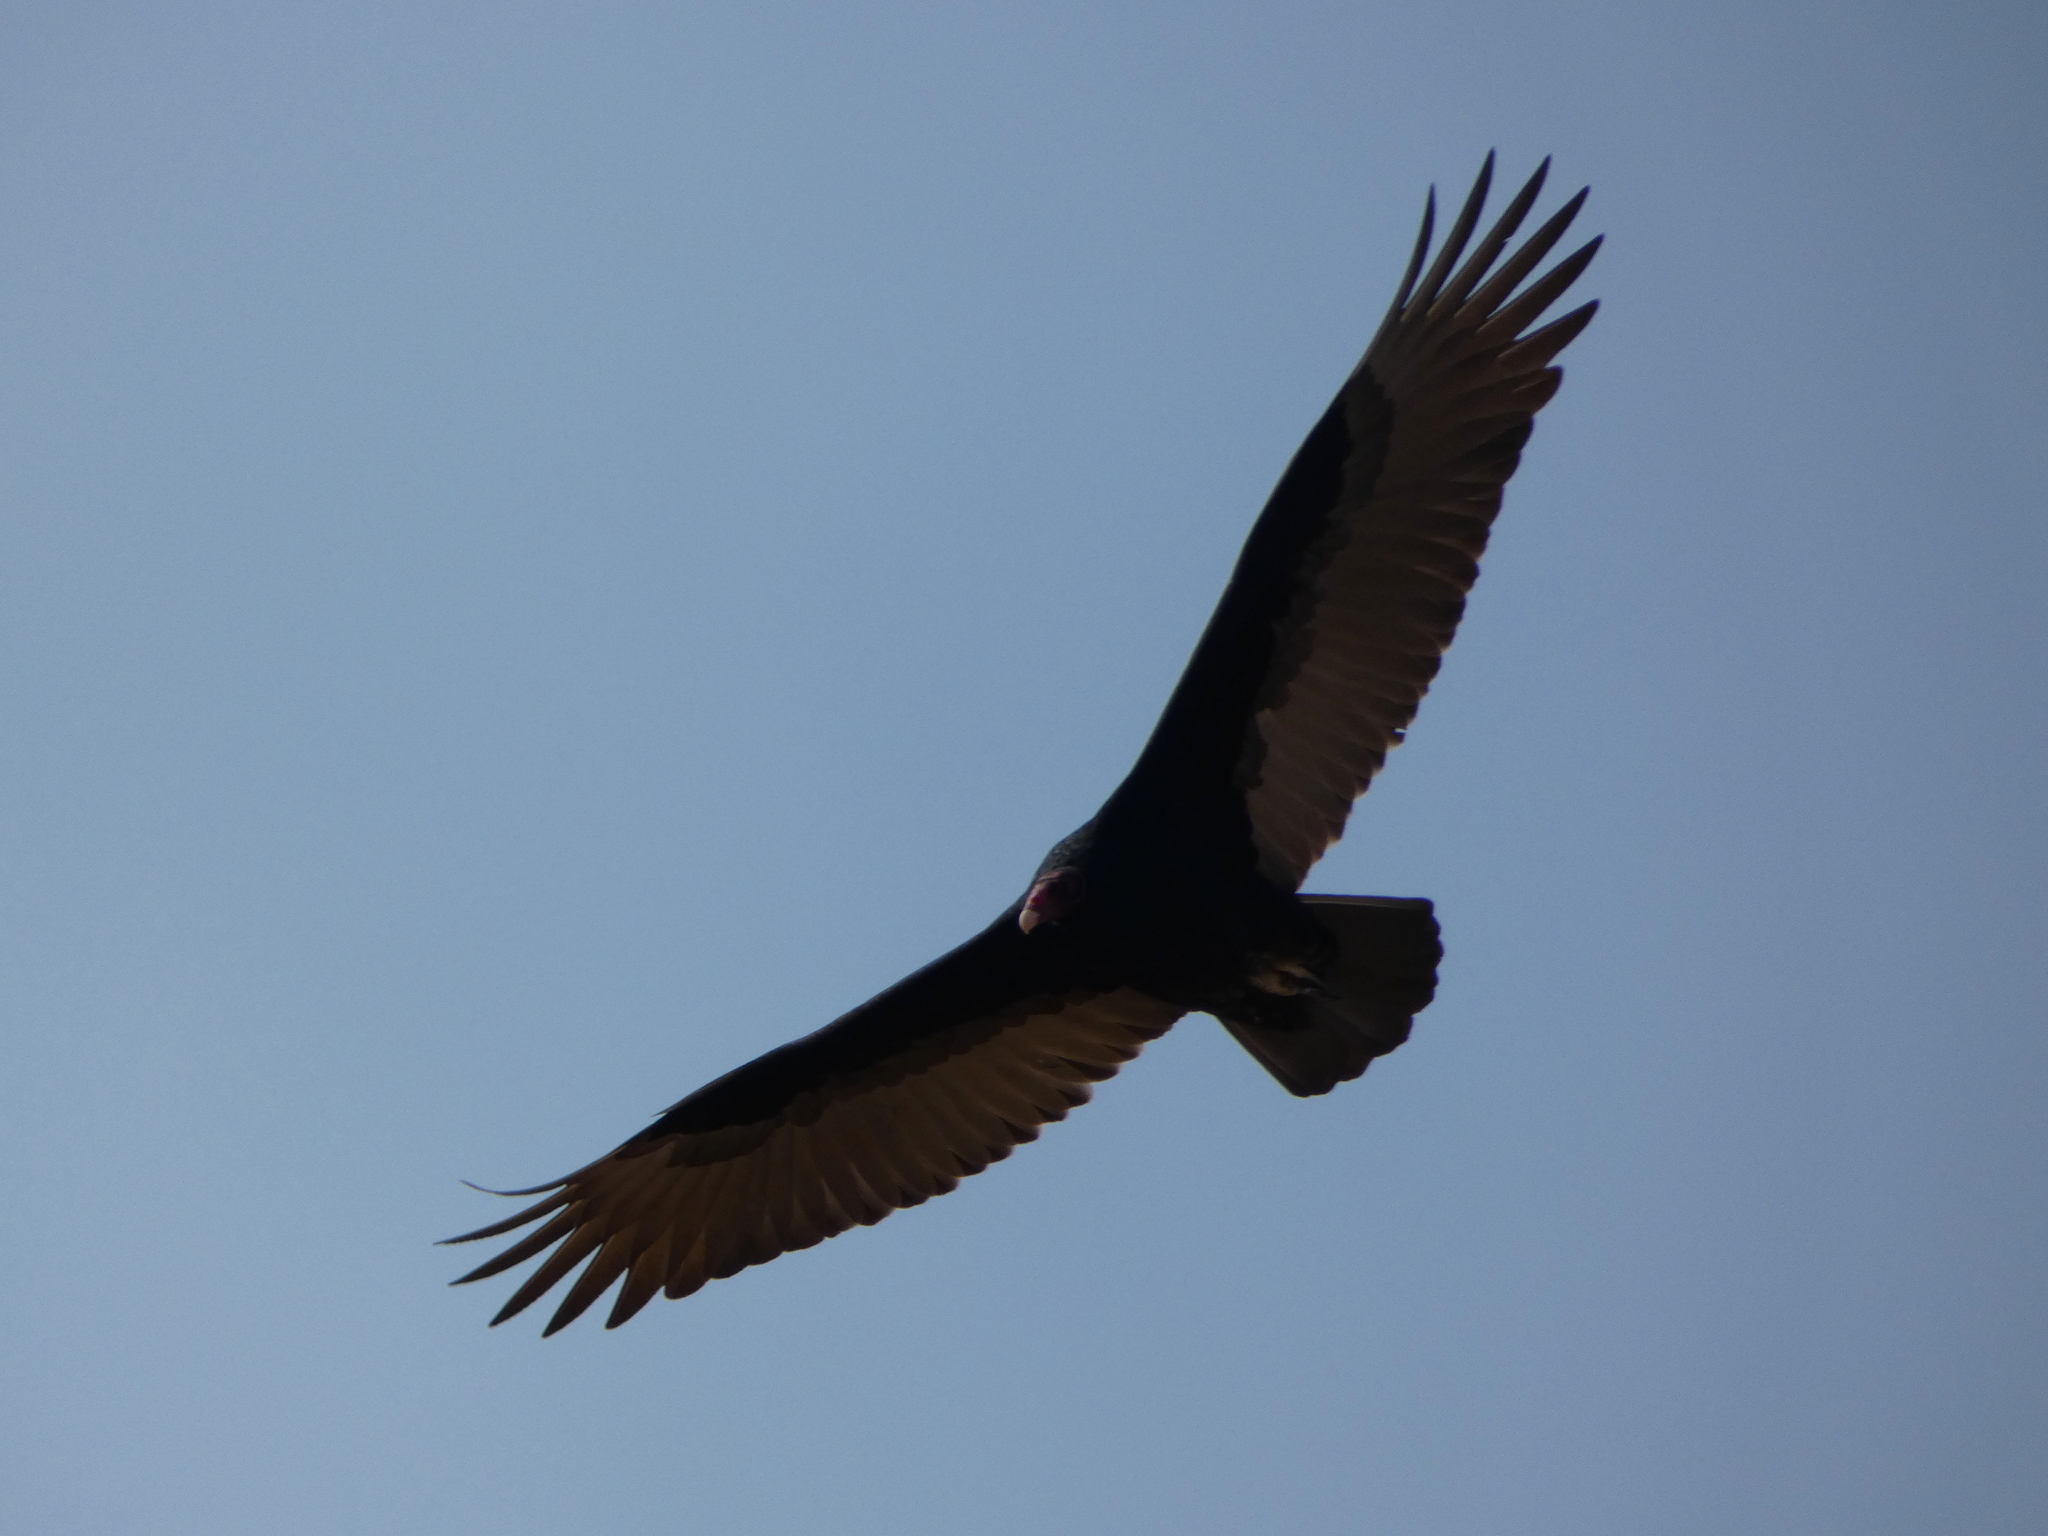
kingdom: Animalia
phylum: Chordata
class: Aves
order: Accipitriformes
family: Cathartidae
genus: Cathartes
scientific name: Cathartes aura
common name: Turkey vulture
